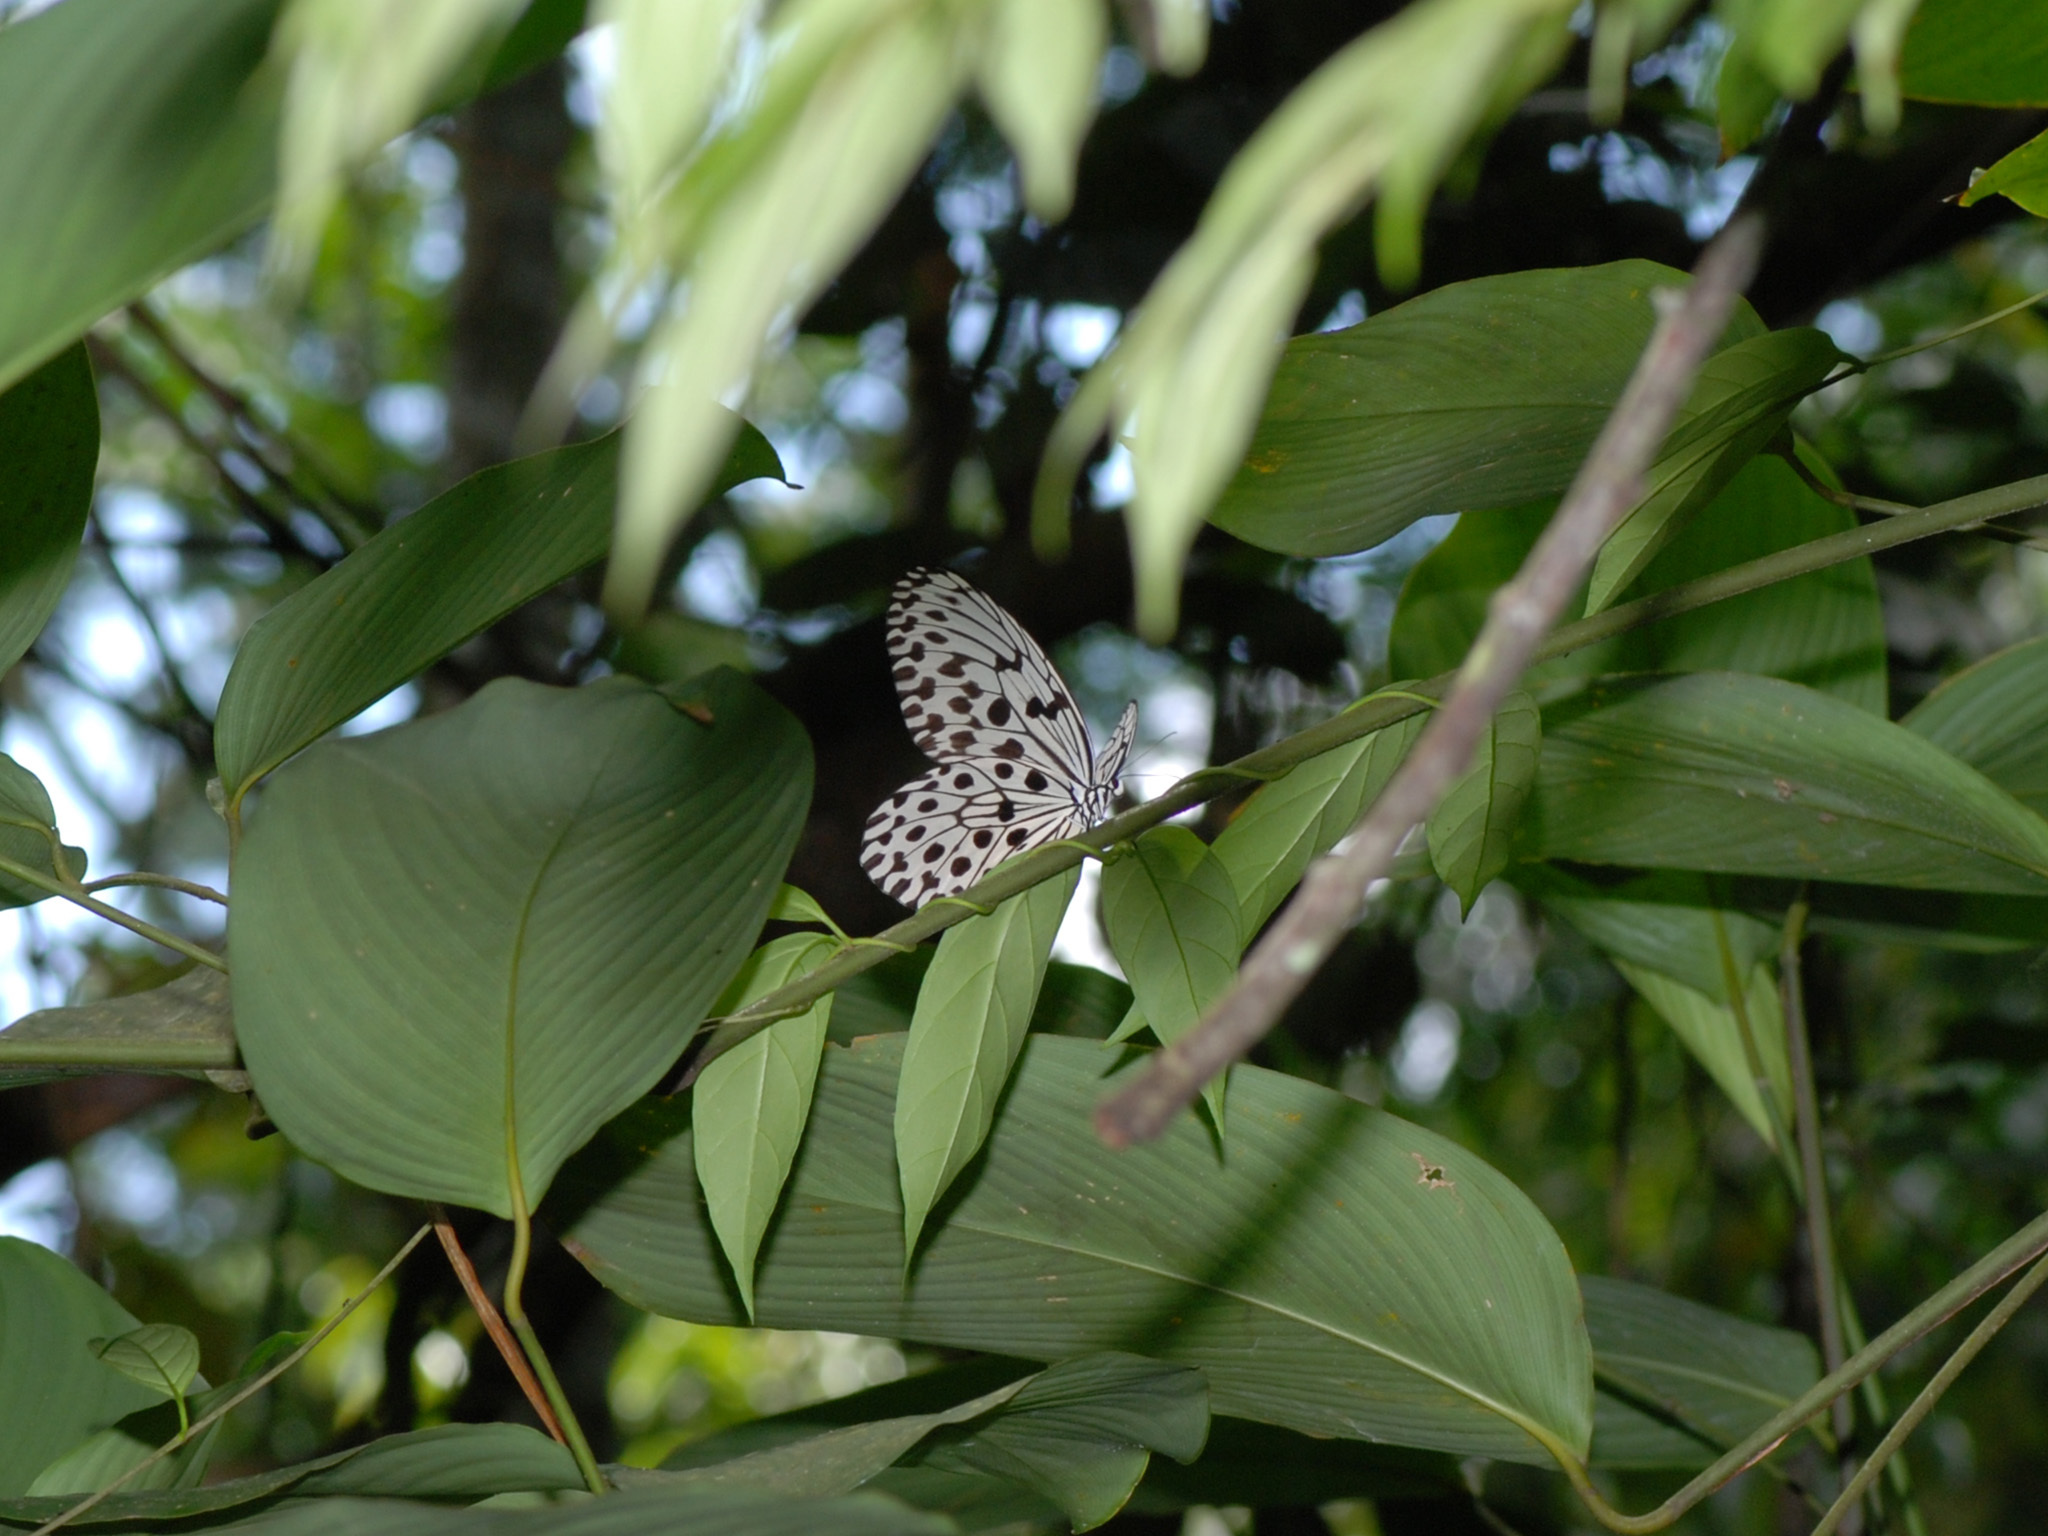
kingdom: Animalia
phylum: Arthropoda
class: Insecta
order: Lepidoptera
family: Nymphalidae
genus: Idea
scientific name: Idea hypermnestra
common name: Malayan tree nymph
